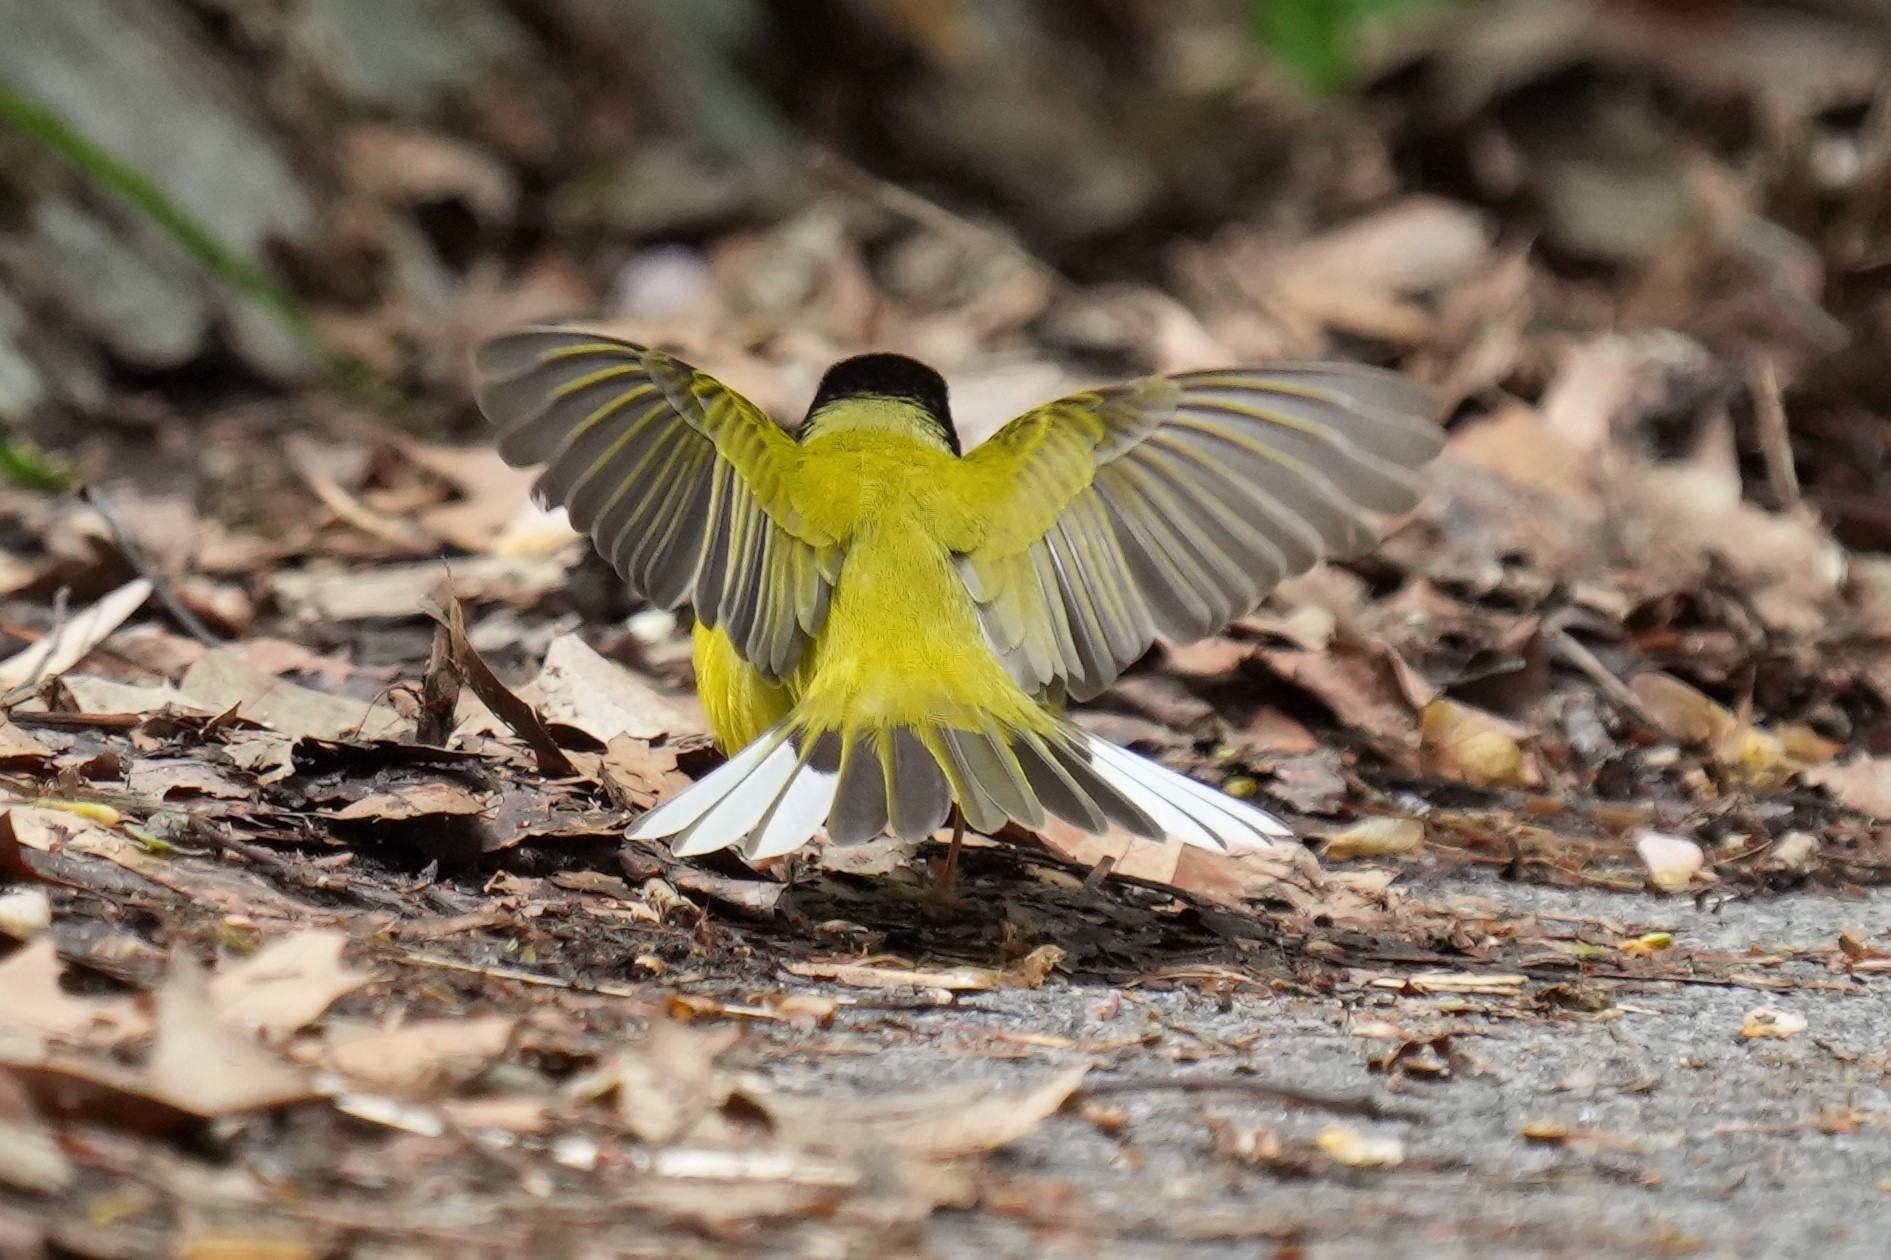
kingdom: Animalia
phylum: Chordata
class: Aves
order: Passeriformes
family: Parulidae
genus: Setophaga
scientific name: Setophaga citrina
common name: Hooded warbler
